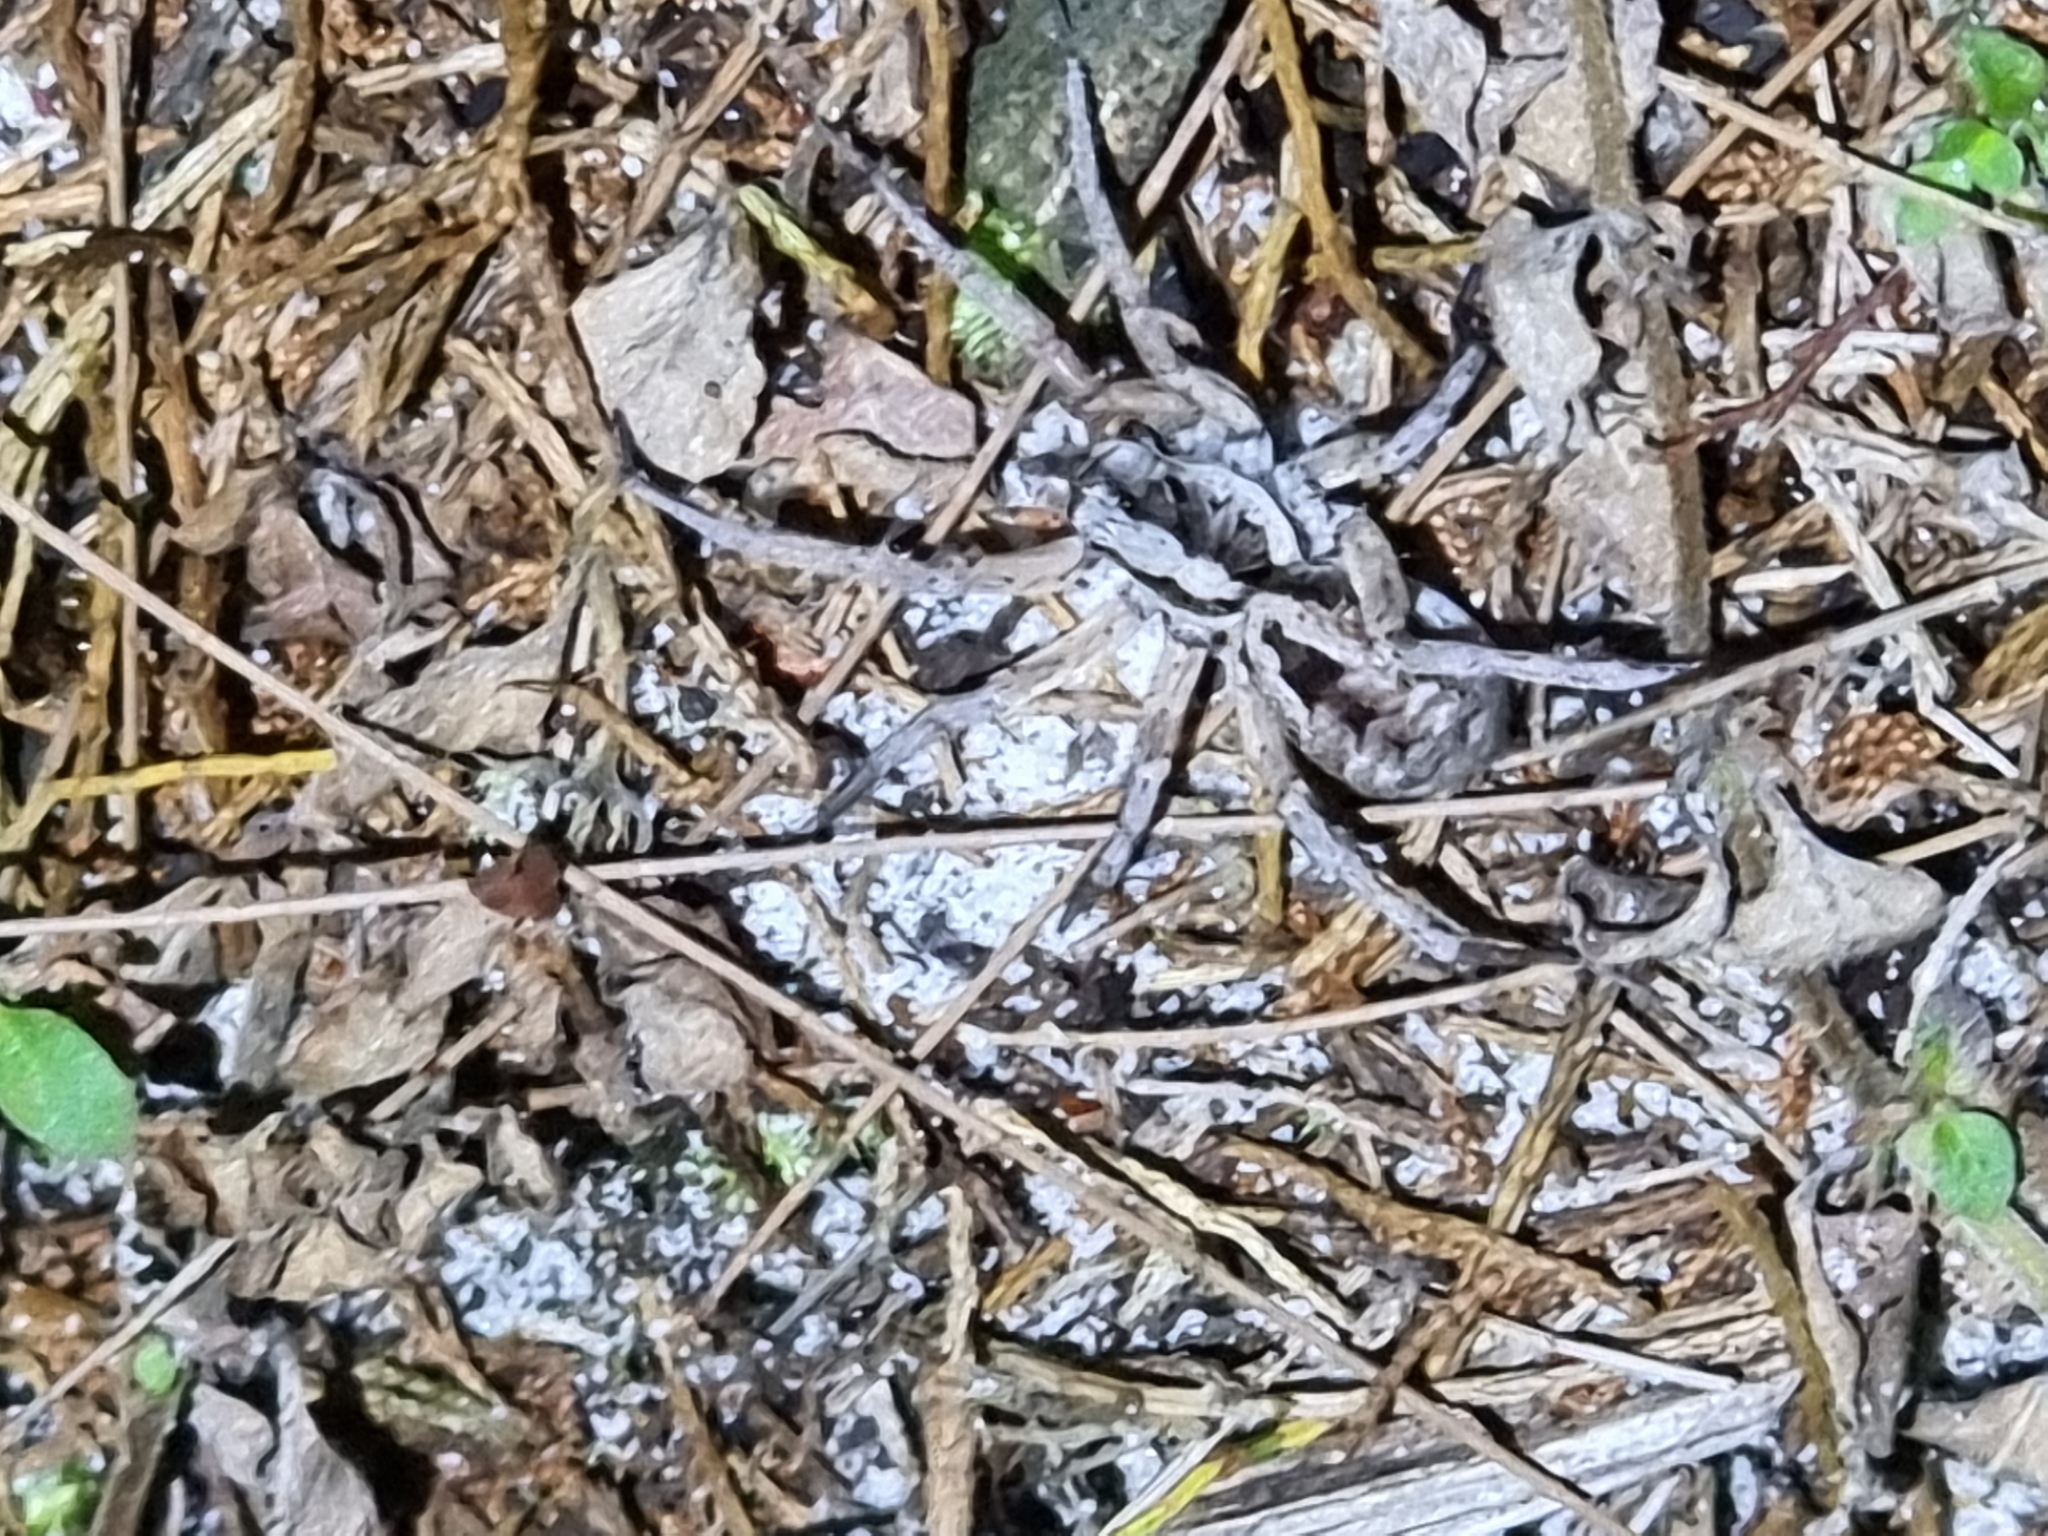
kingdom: Animalia
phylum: Arthropoda
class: Arachnida
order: Araneae
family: Lycosidae
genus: Venator
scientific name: Venator spenceri
